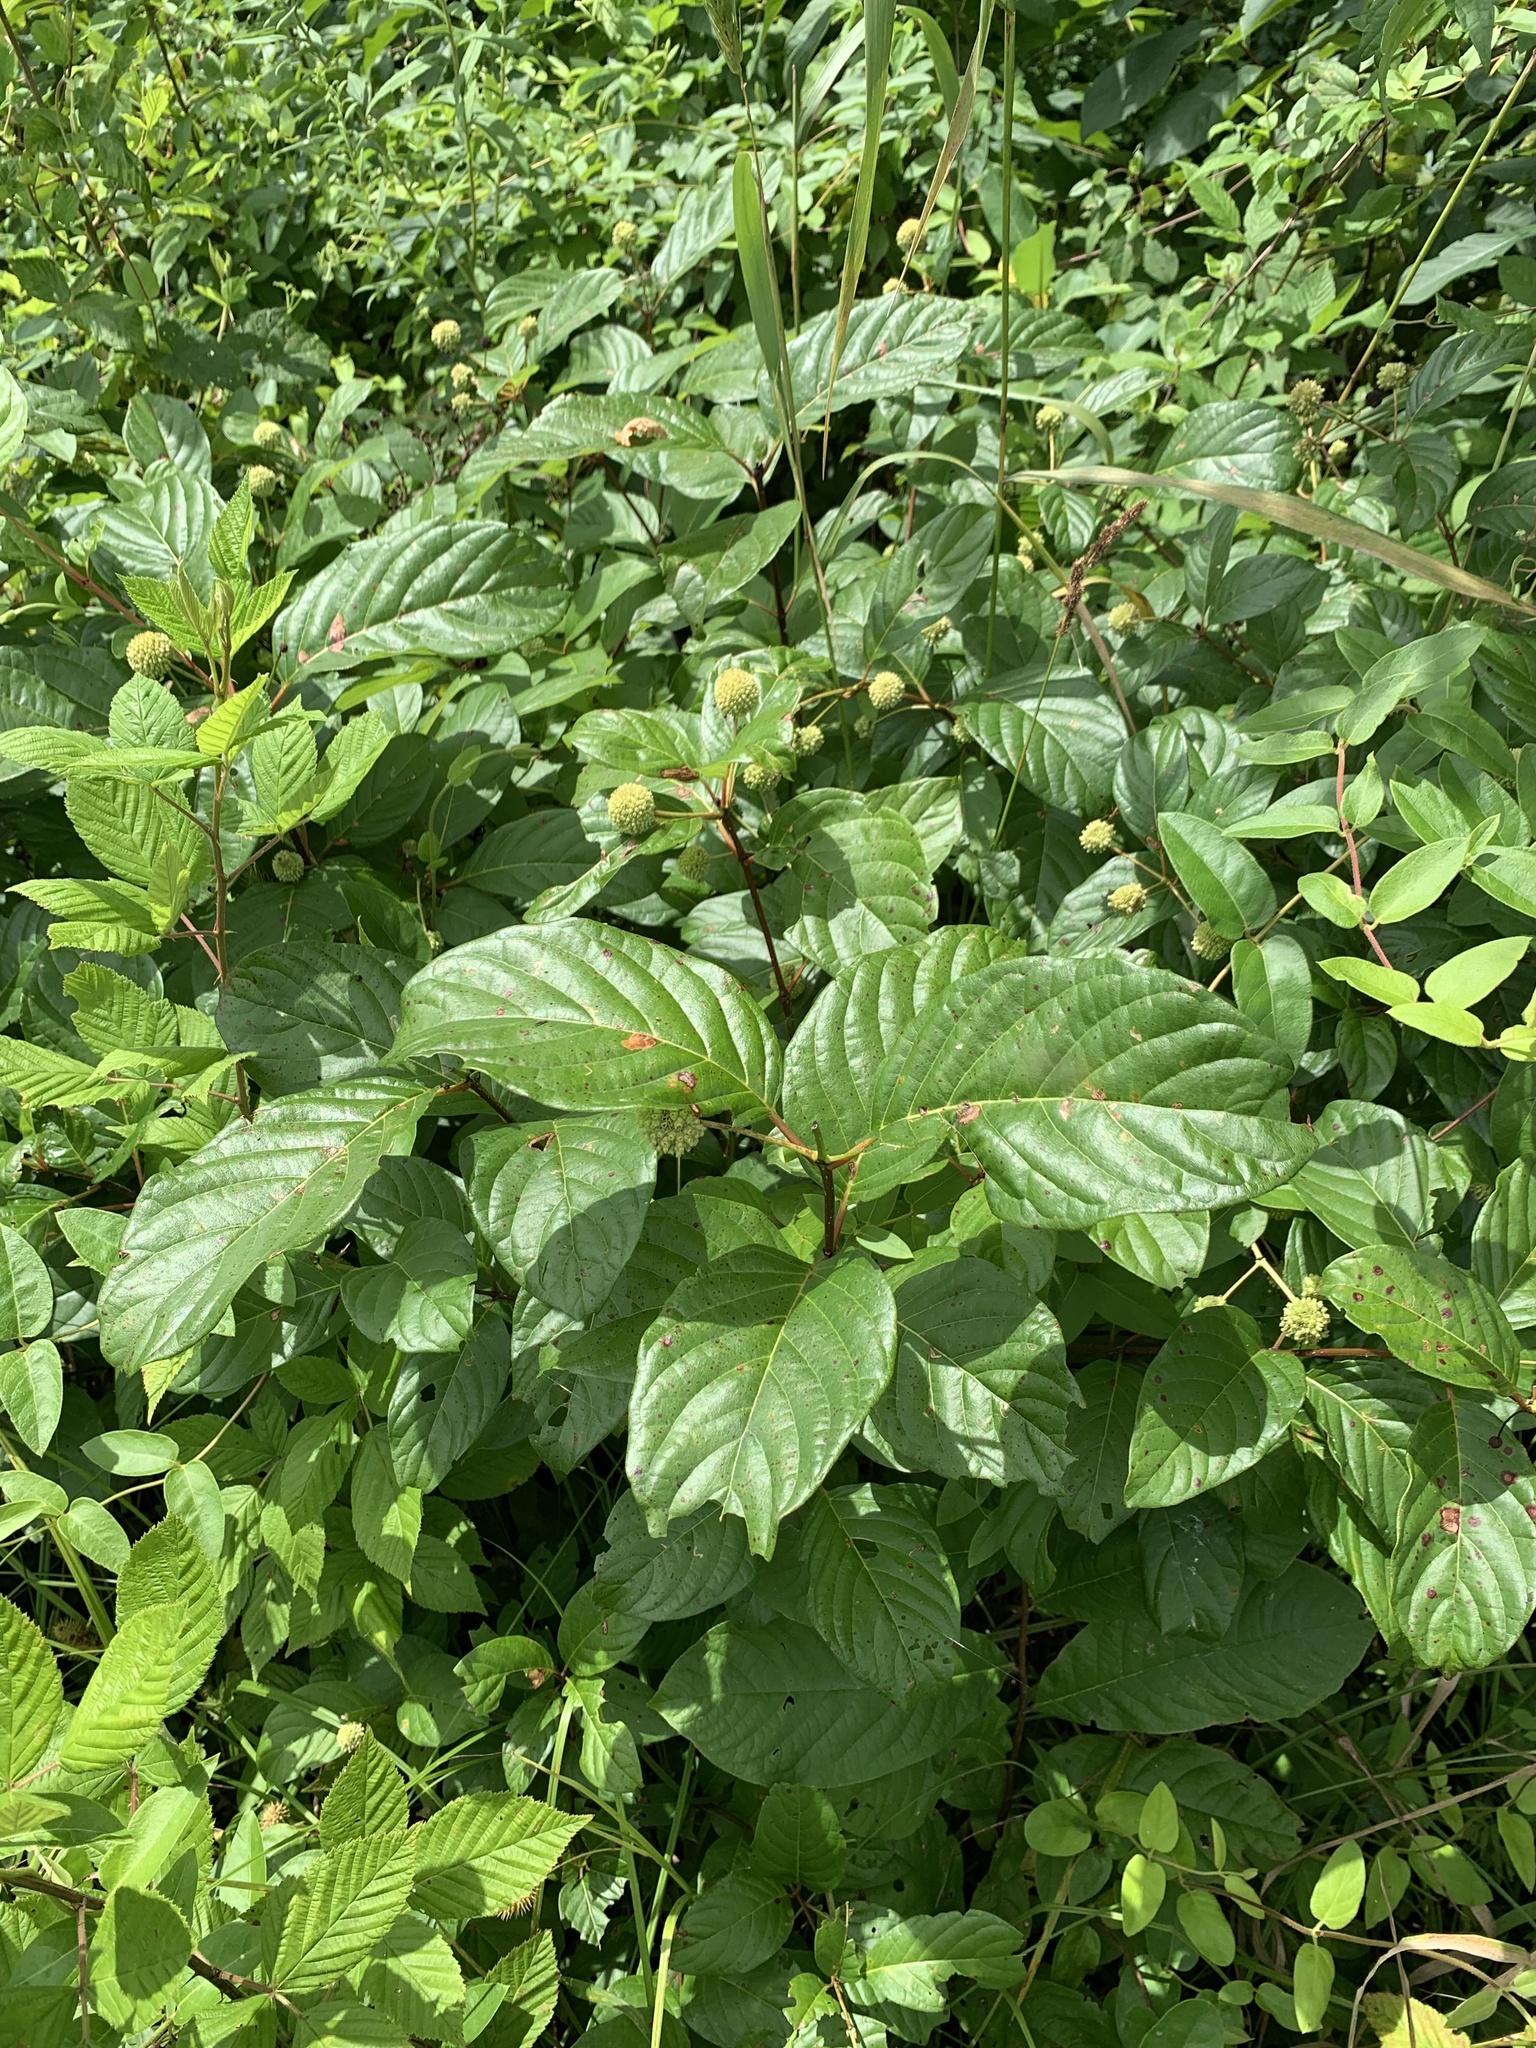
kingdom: Plantae
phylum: Tracheophyta
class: Magnoliopsida
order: Gentianales
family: Rubiaceae
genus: Cephalanthus
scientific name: Cephalanthus occidentalis
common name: Button-willow
